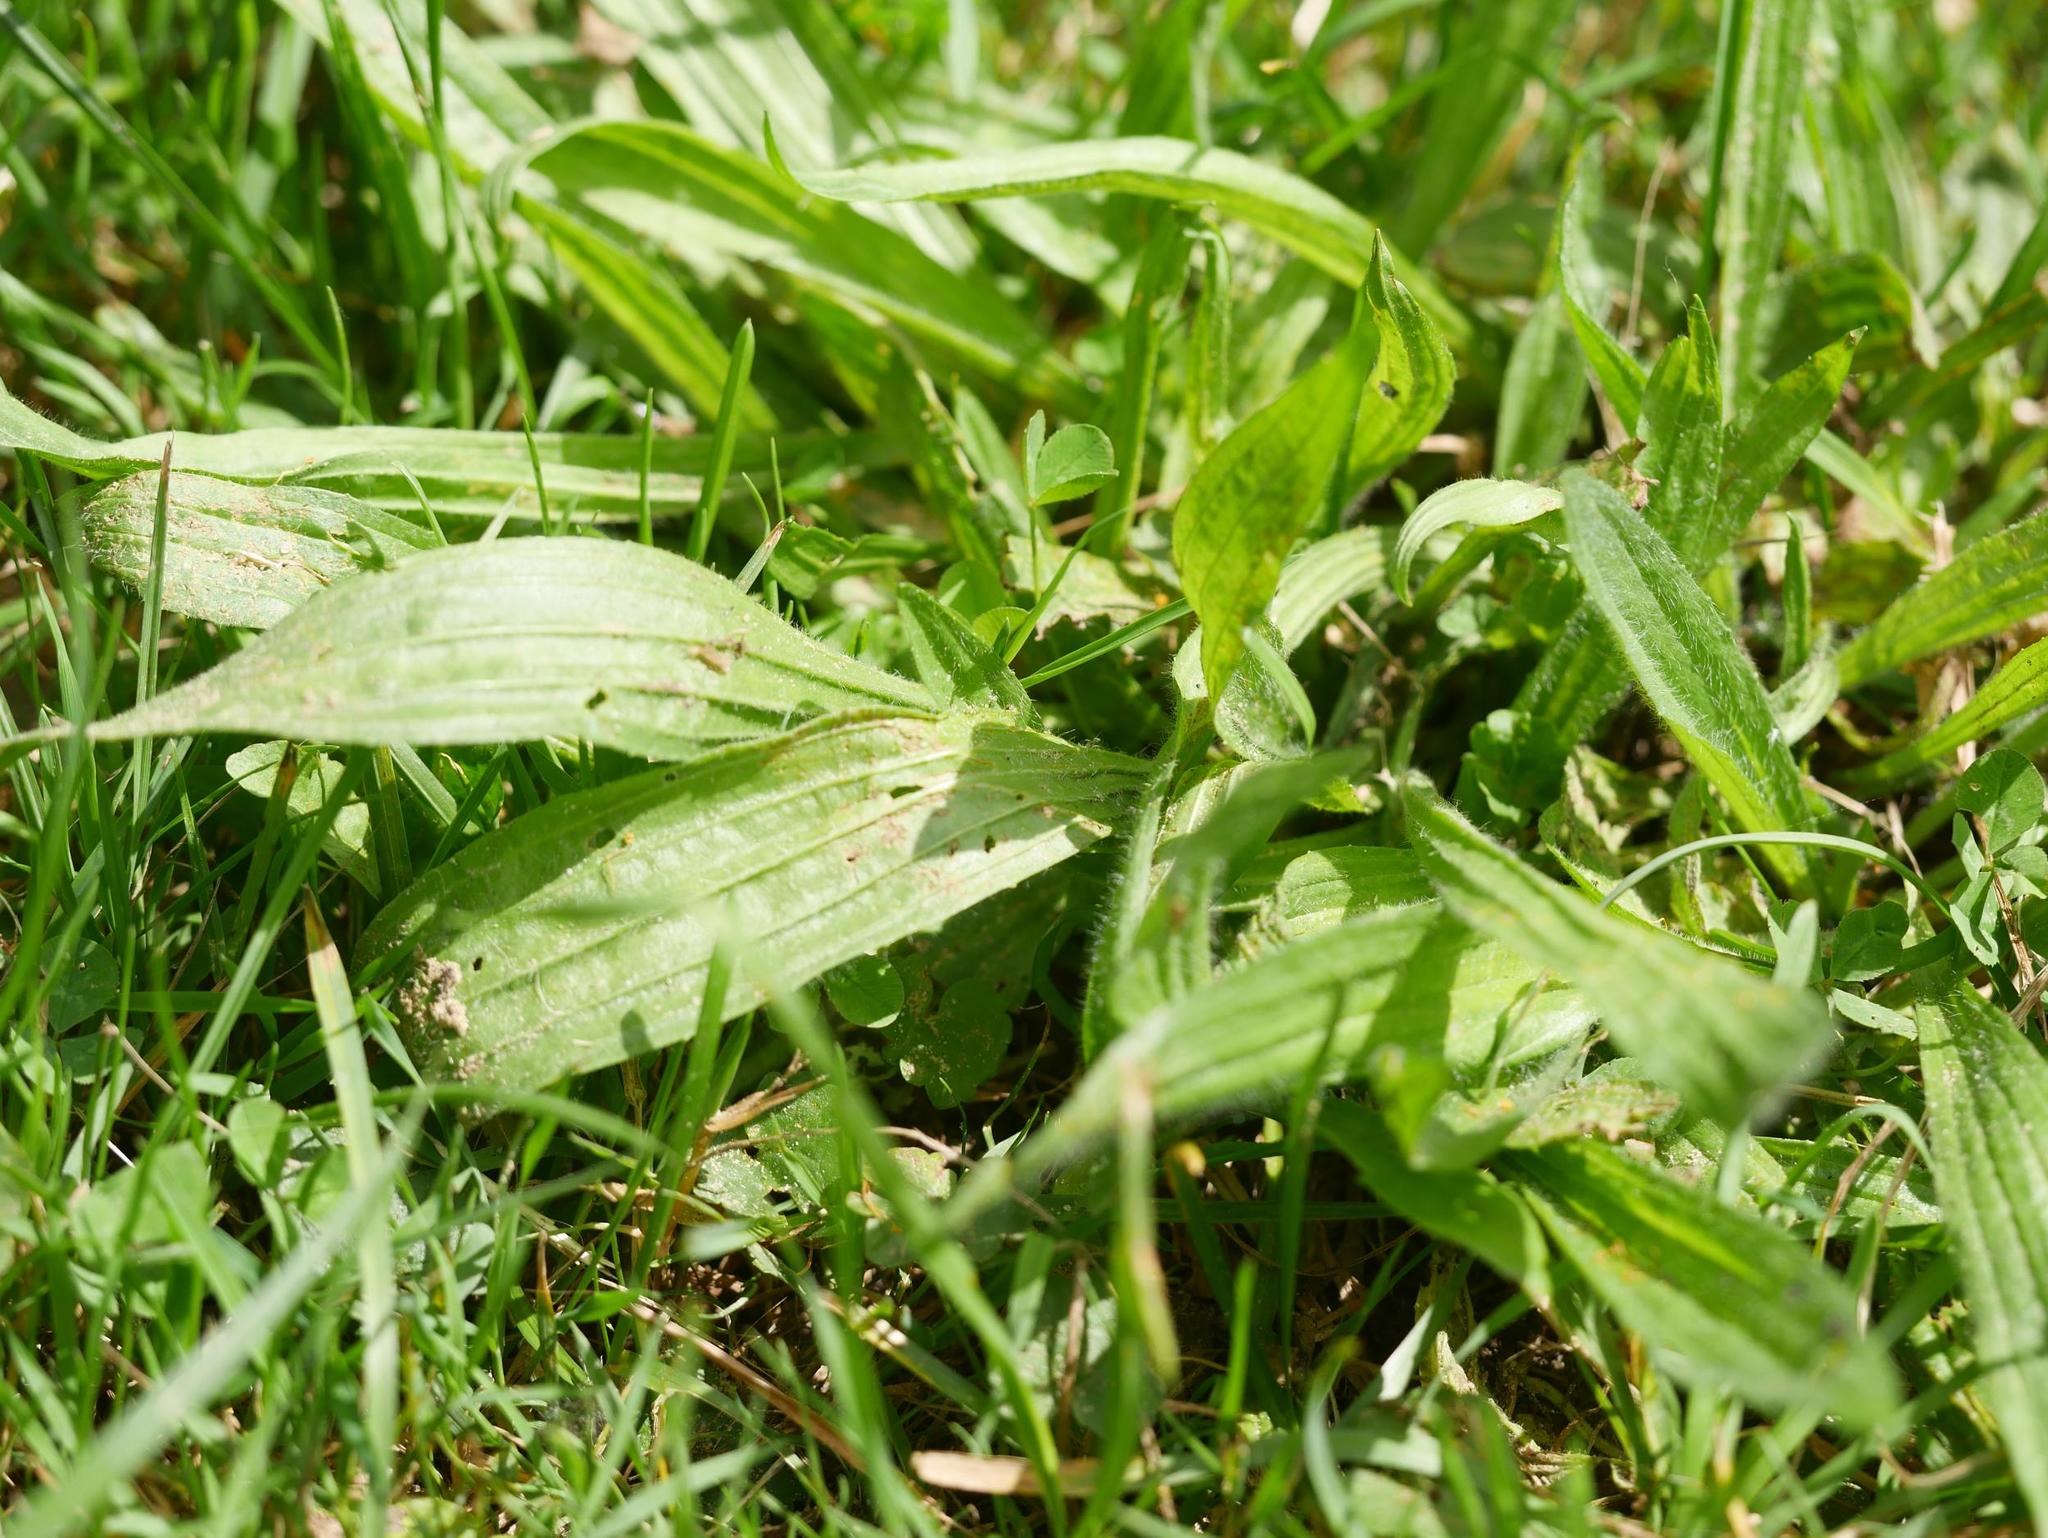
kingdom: Plantae
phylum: Tracheophyta
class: Magnoliopsida
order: Lamiales
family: Plantaginaceae
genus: Plantago
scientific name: Plantago lanceolata
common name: Ribwort plantain
